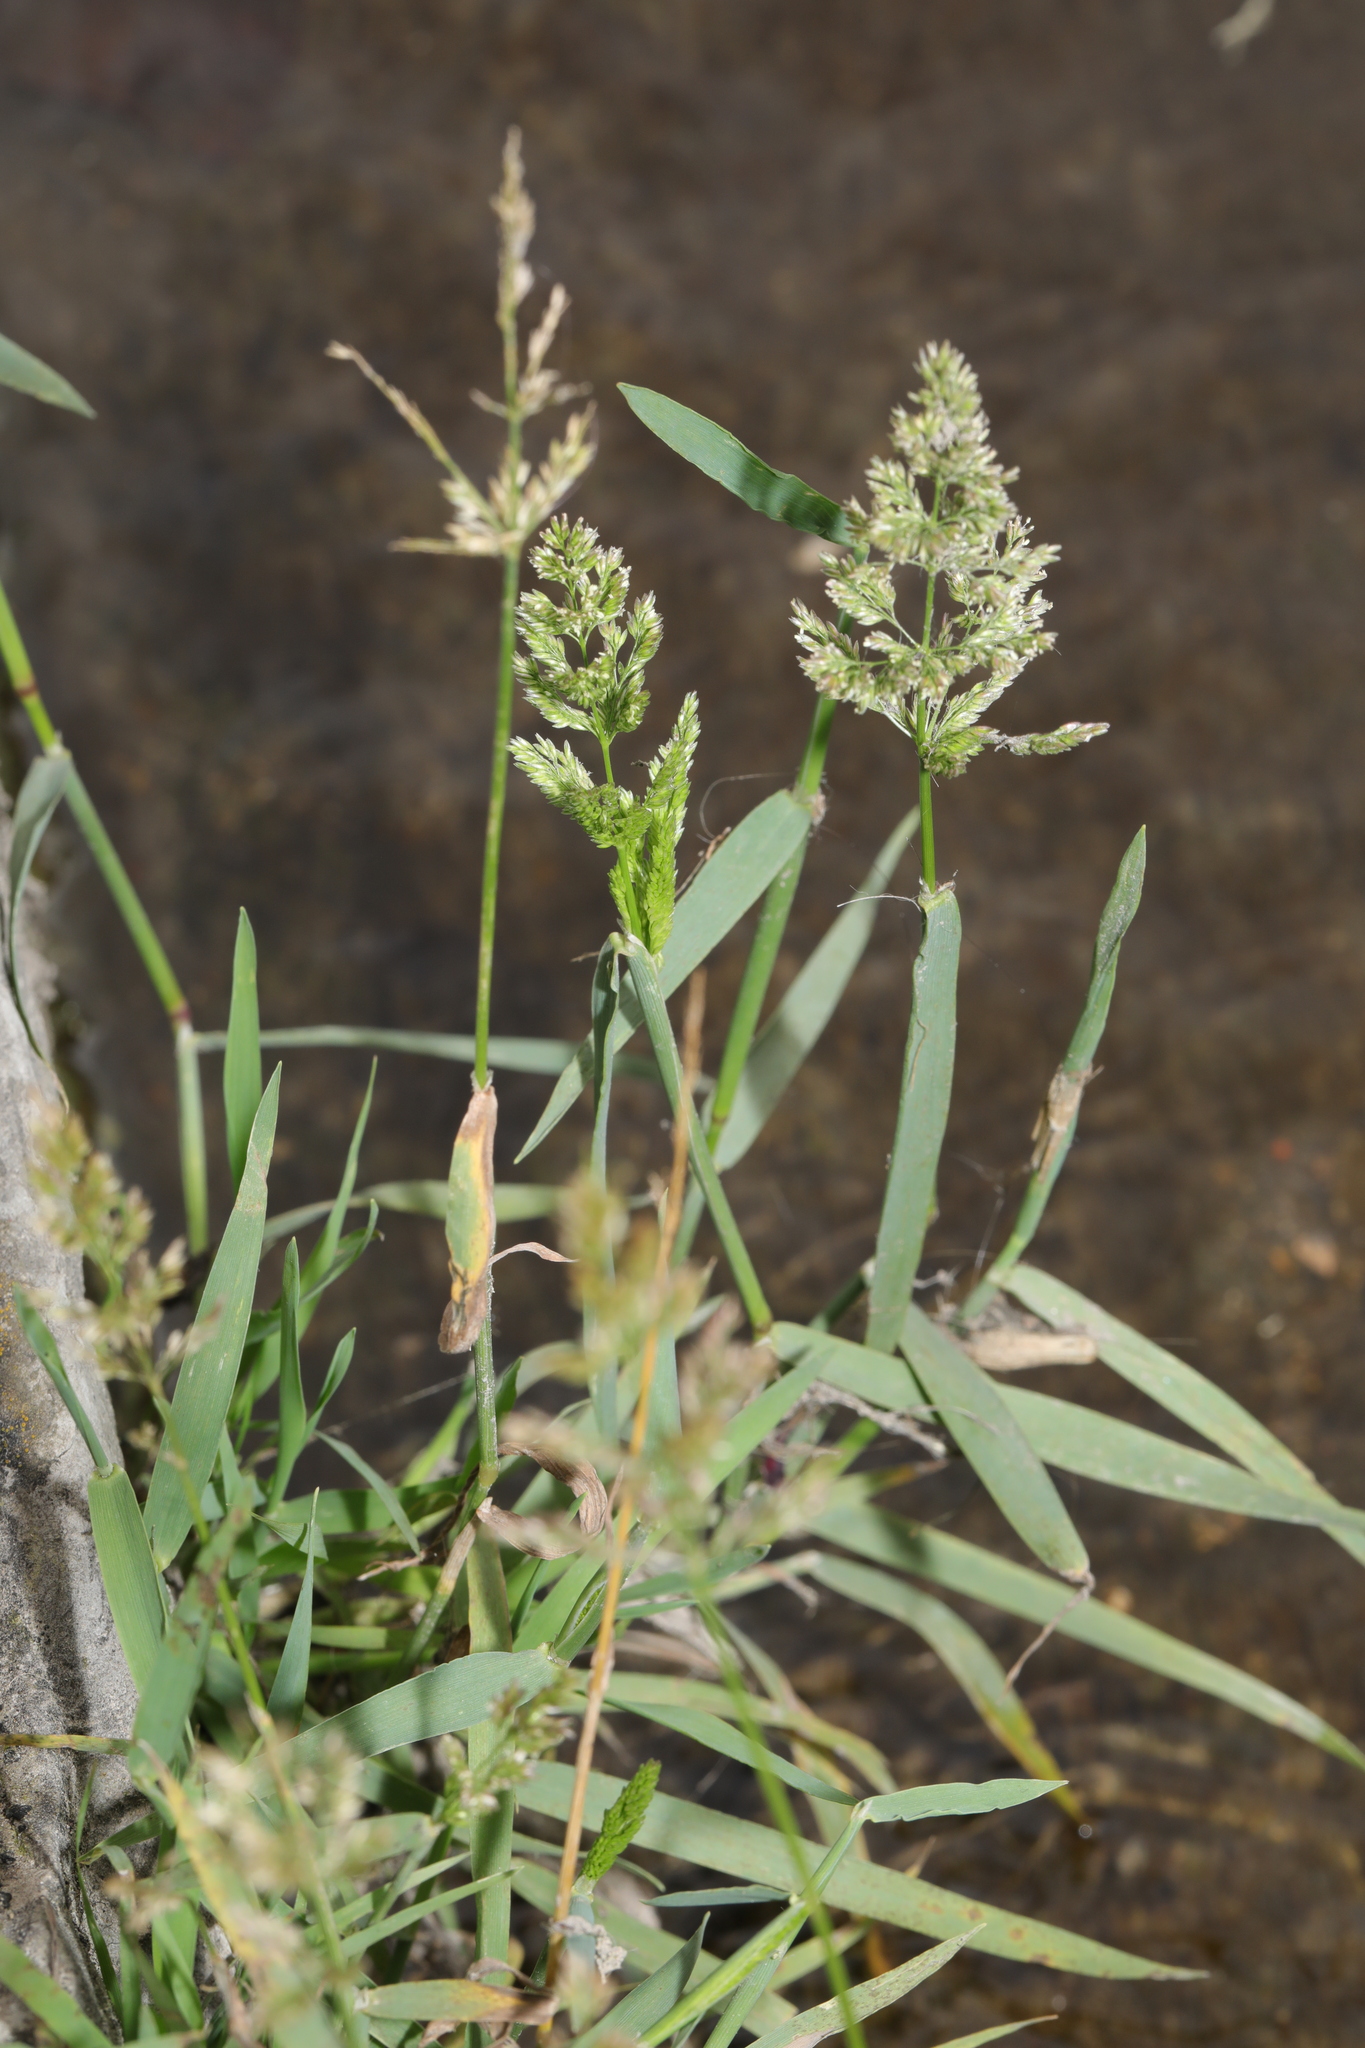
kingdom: Plantae
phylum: Tracheophyta
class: Liliopsida
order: Poales
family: Poaceae
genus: Polypogon
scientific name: Polypogon viridis
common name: Water bent
